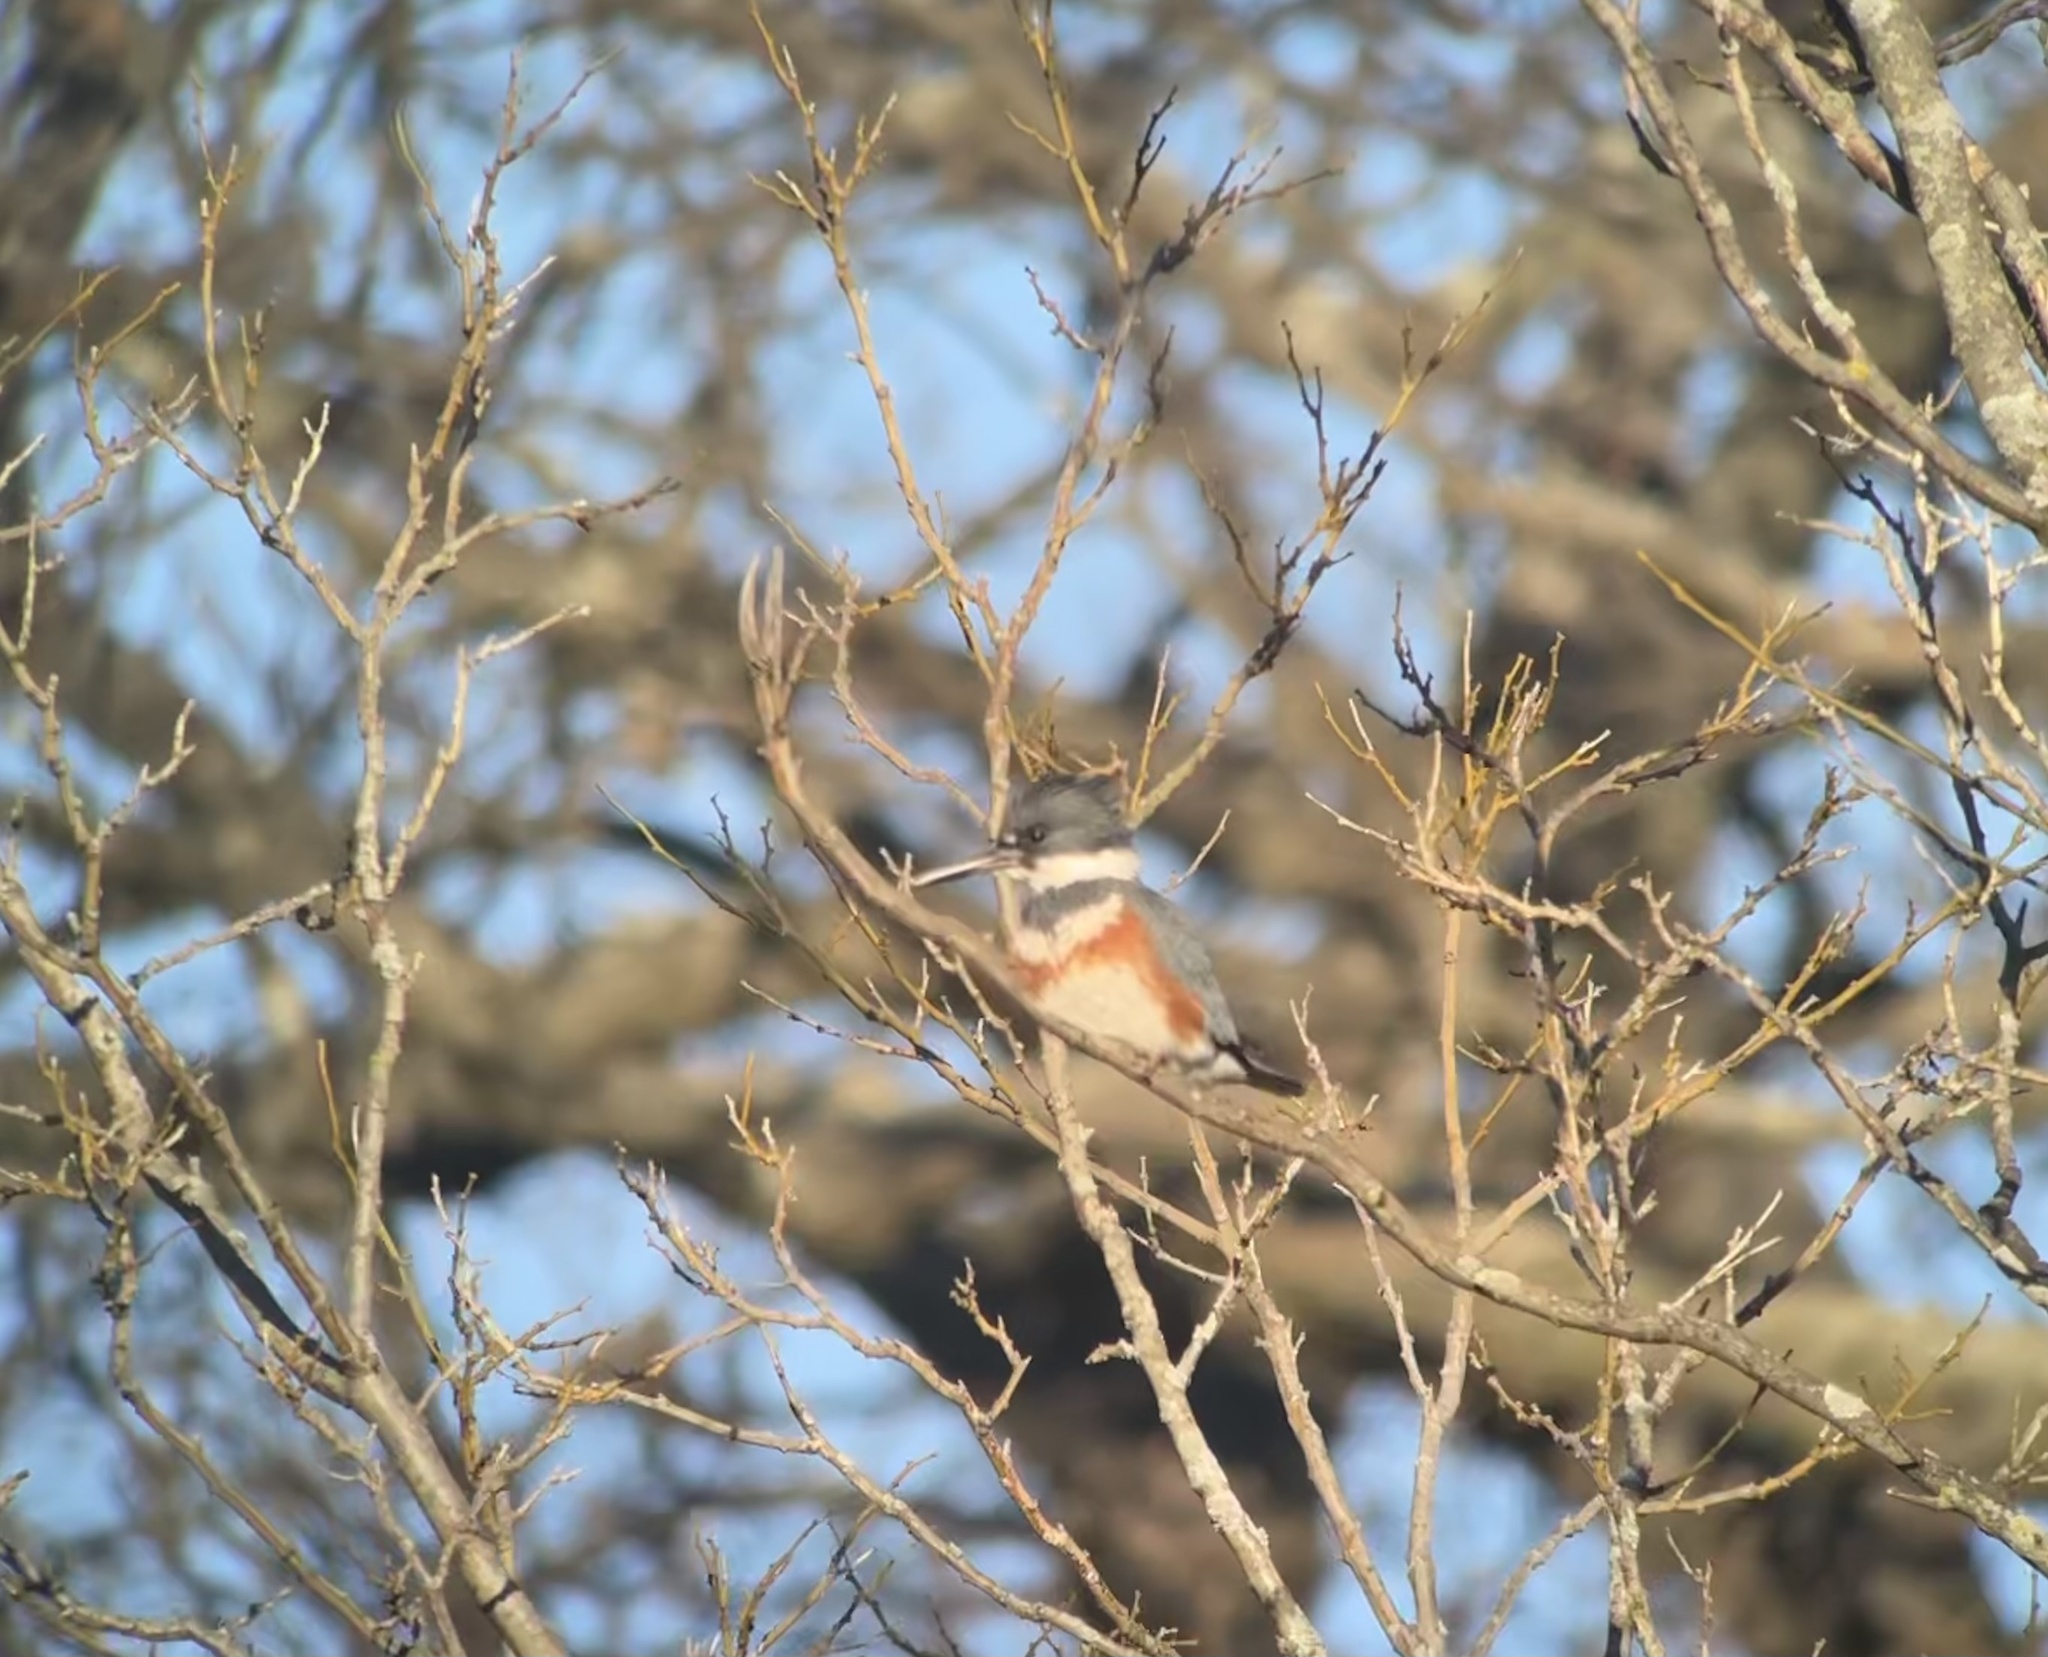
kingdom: Animalia
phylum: Chordata
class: Aves
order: Coraciiformes
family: Alcedinidae
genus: Megaceryle
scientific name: Megaceryle alcyon
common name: Belted kingfisher
